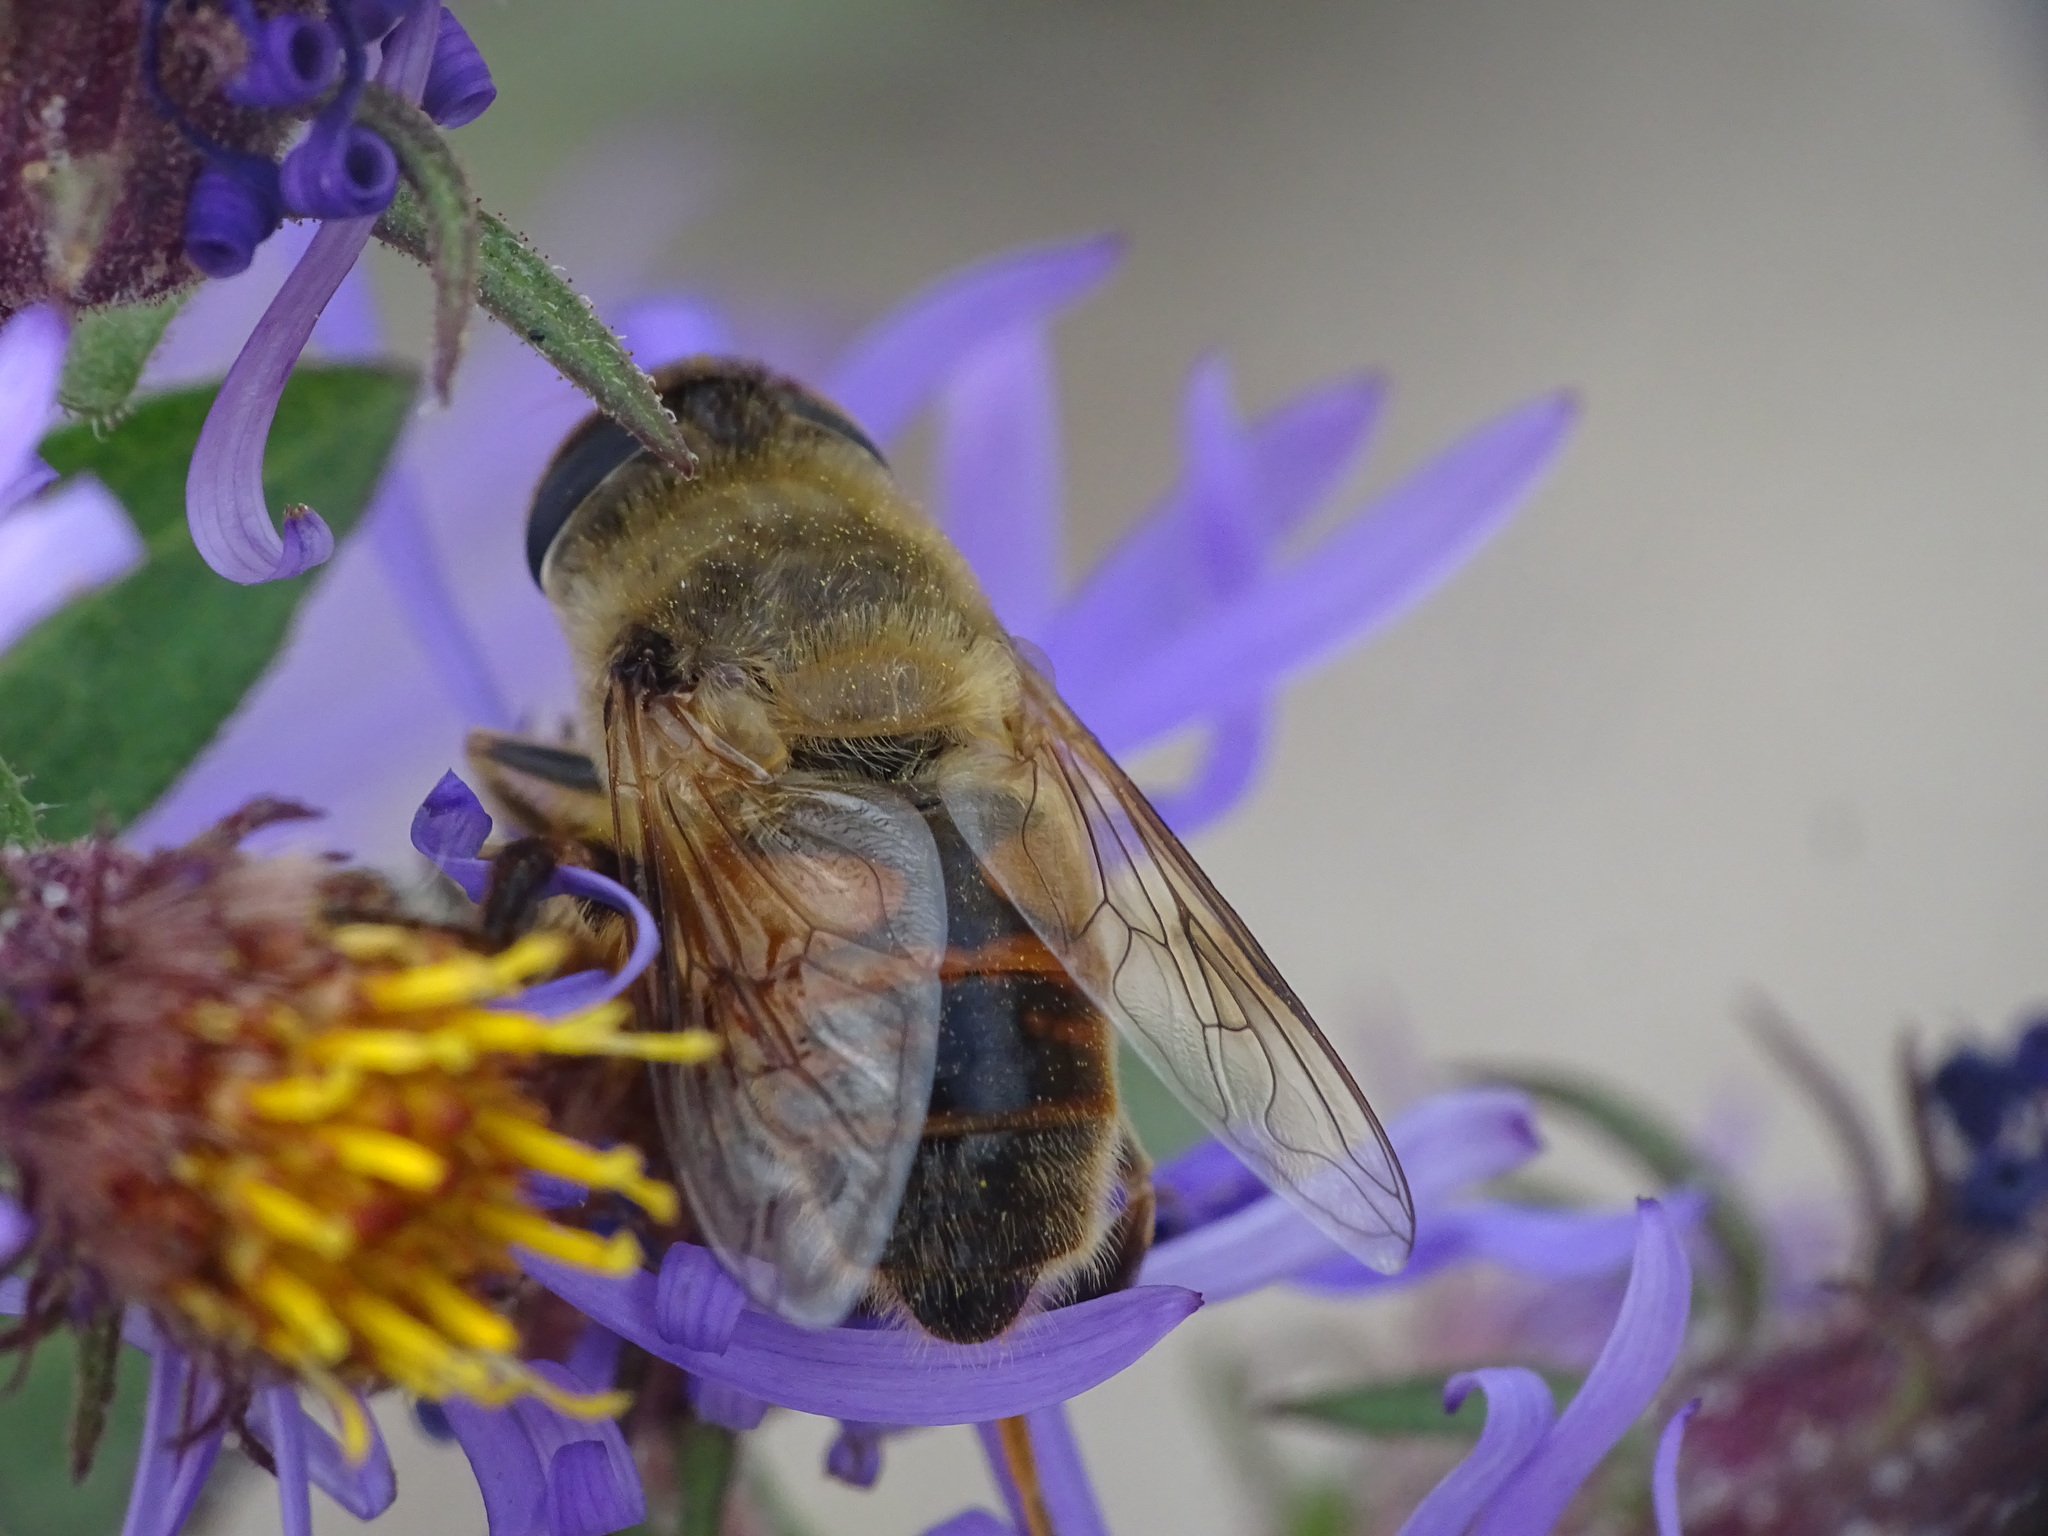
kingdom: Animalia
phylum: Arthropoda
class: Insecta
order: Diptera
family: Syrphidae
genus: Eristalis
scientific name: Eristalis tenax
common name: Drone fly
